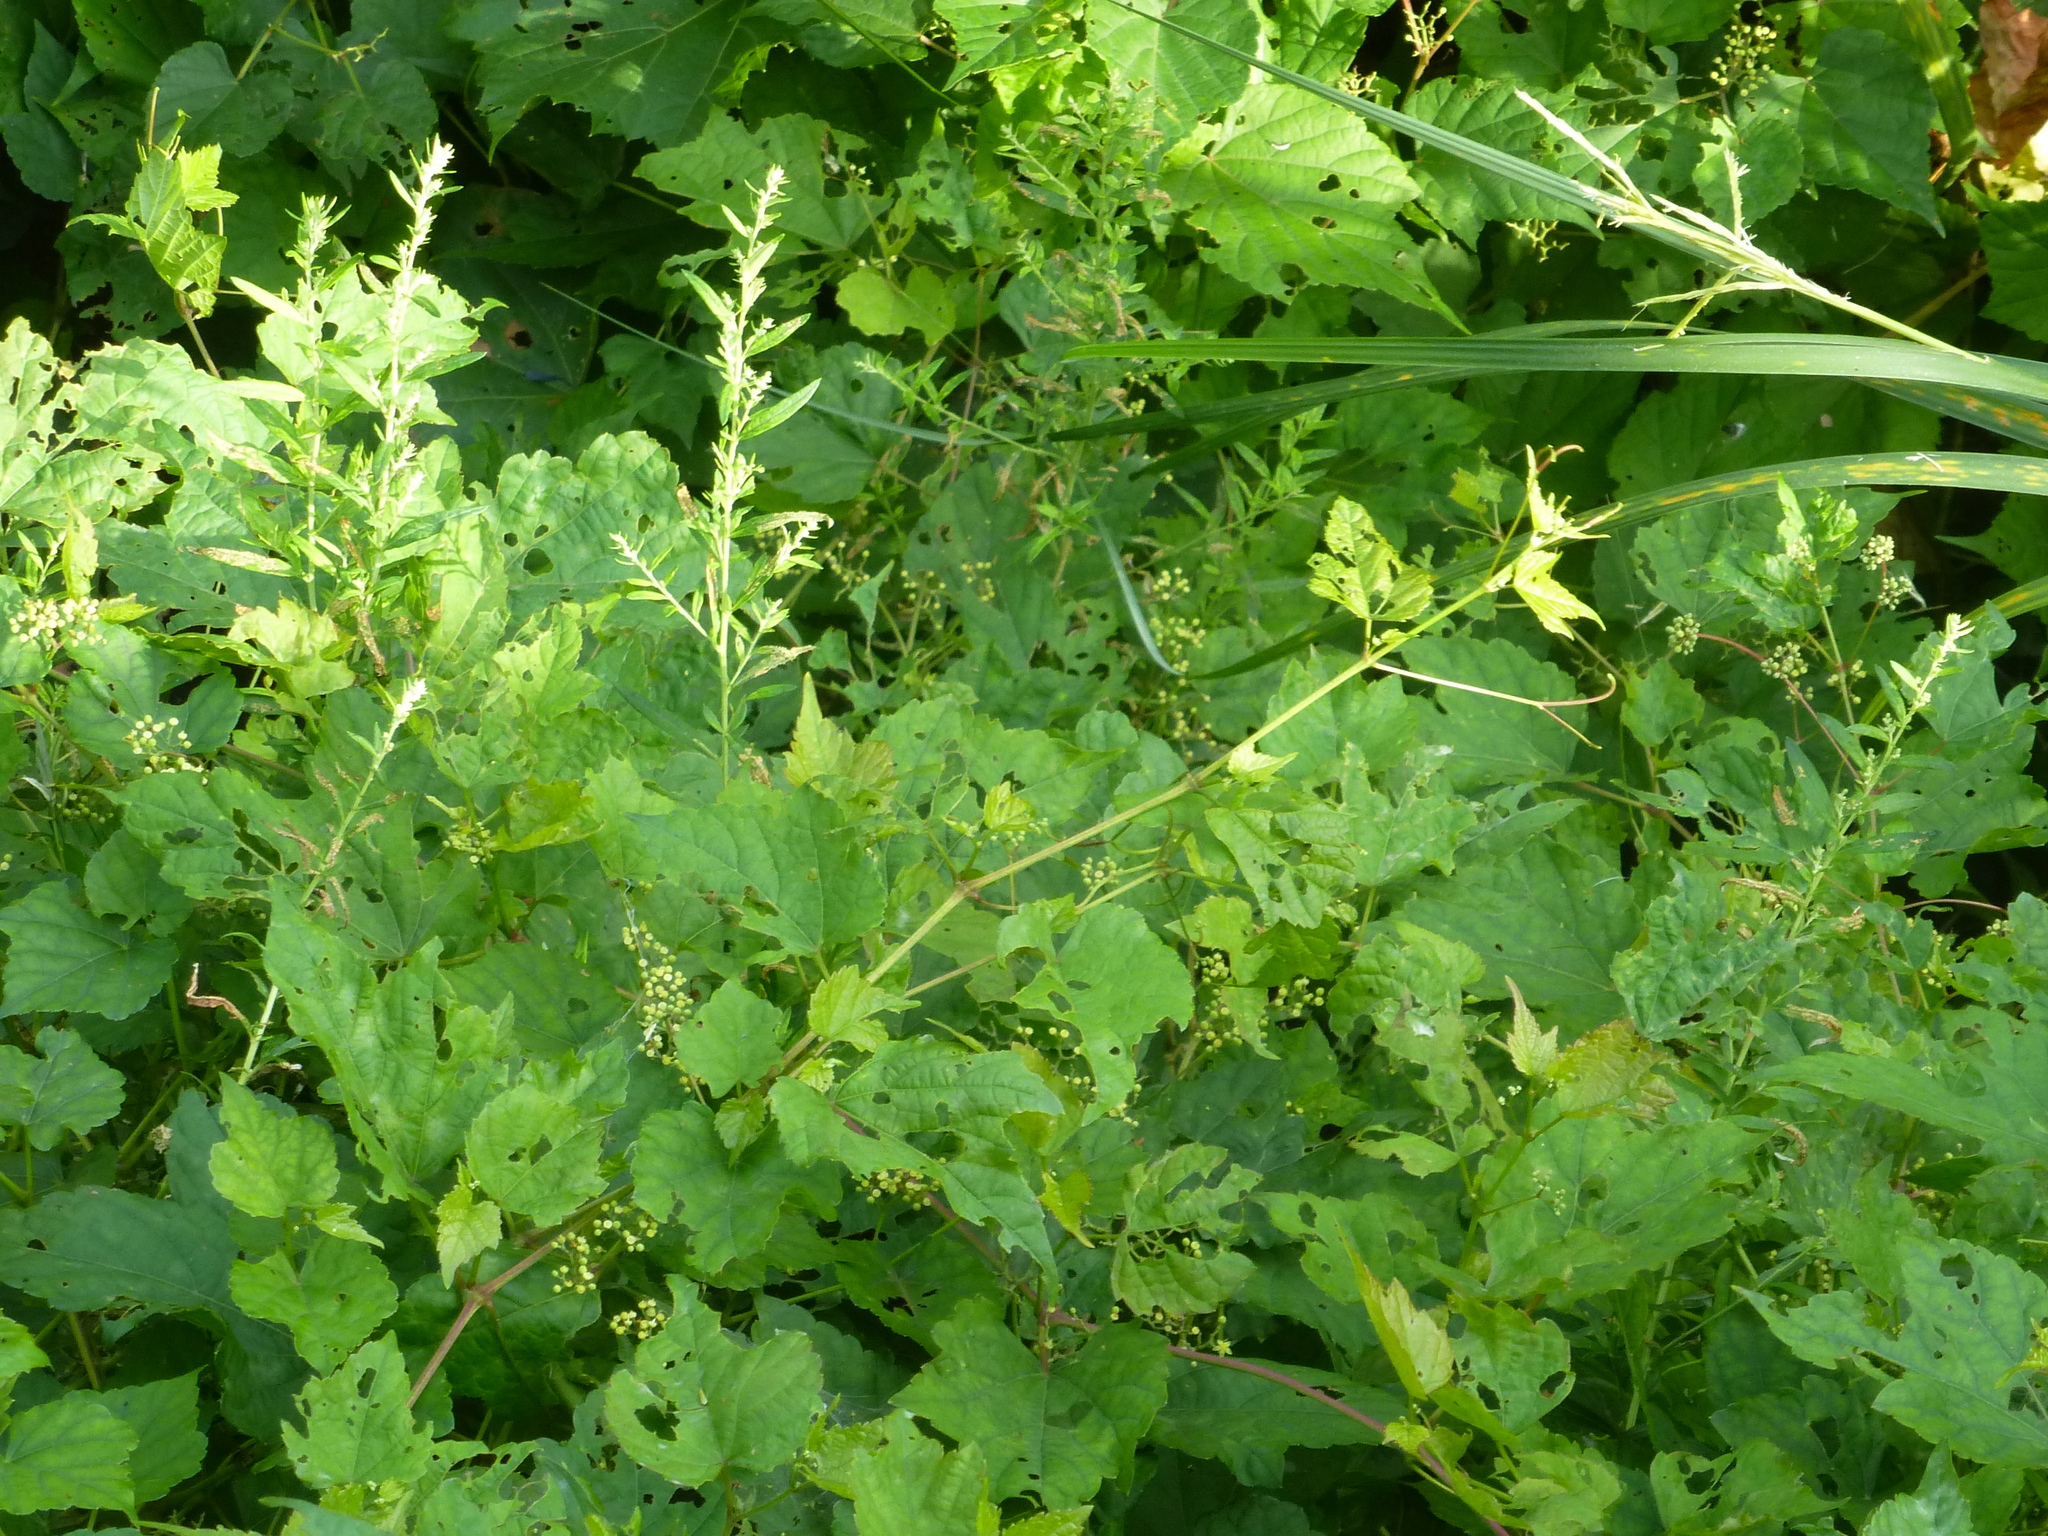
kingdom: Plantae
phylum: Tracheophyta
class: Magnoliopsida
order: Vitales
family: Vitaceae
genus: Ampelopsis
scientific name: Ampelopsis glandulosa
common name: Amur peppervine
